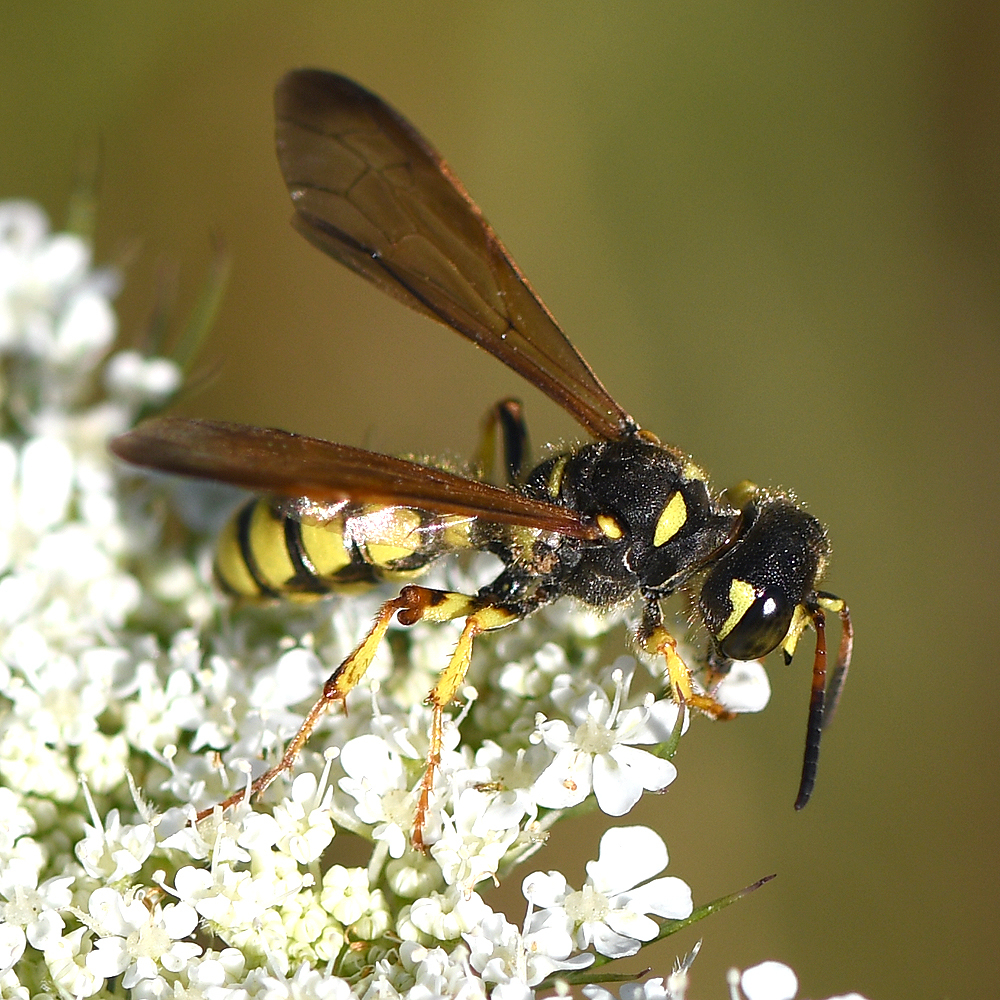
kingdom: Animalia
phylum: Arthropoda
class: Insecta
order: Hymenoptera
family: Crabronidae
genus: Cerceris
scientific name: Cerceris sextoides
